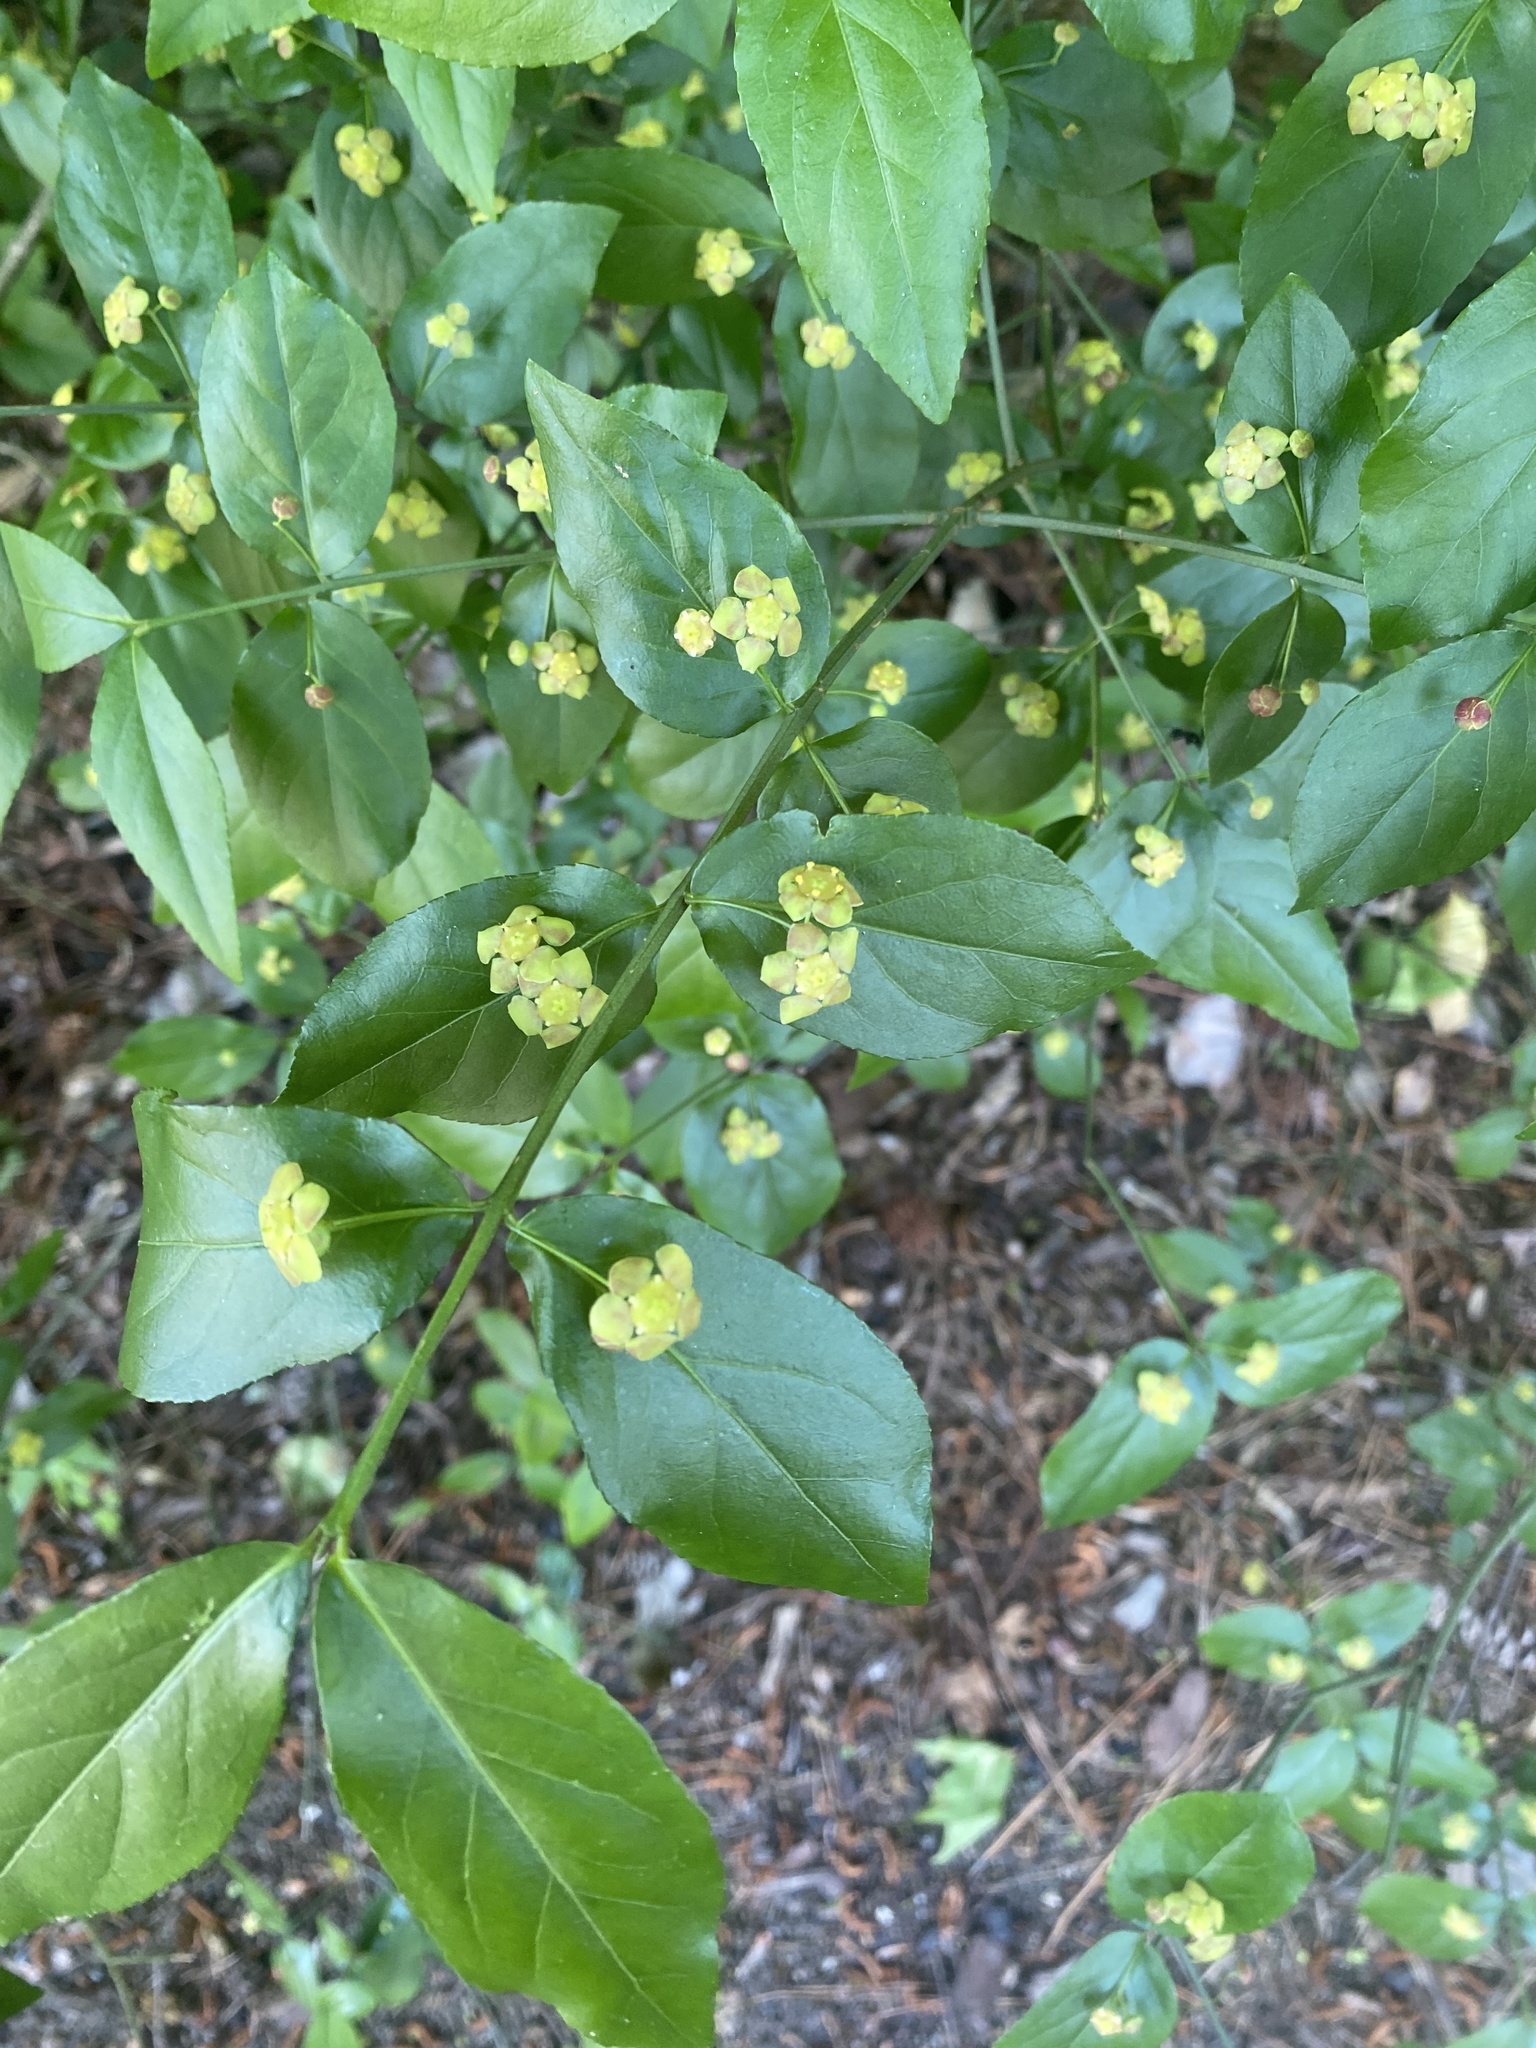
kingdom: Plantae
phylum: Tracheophyta
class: Magnoliopsida
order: Celastrales
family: Celastraceae
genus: Euonymus
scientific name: Euonymus americanus
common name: Bursting-heart
